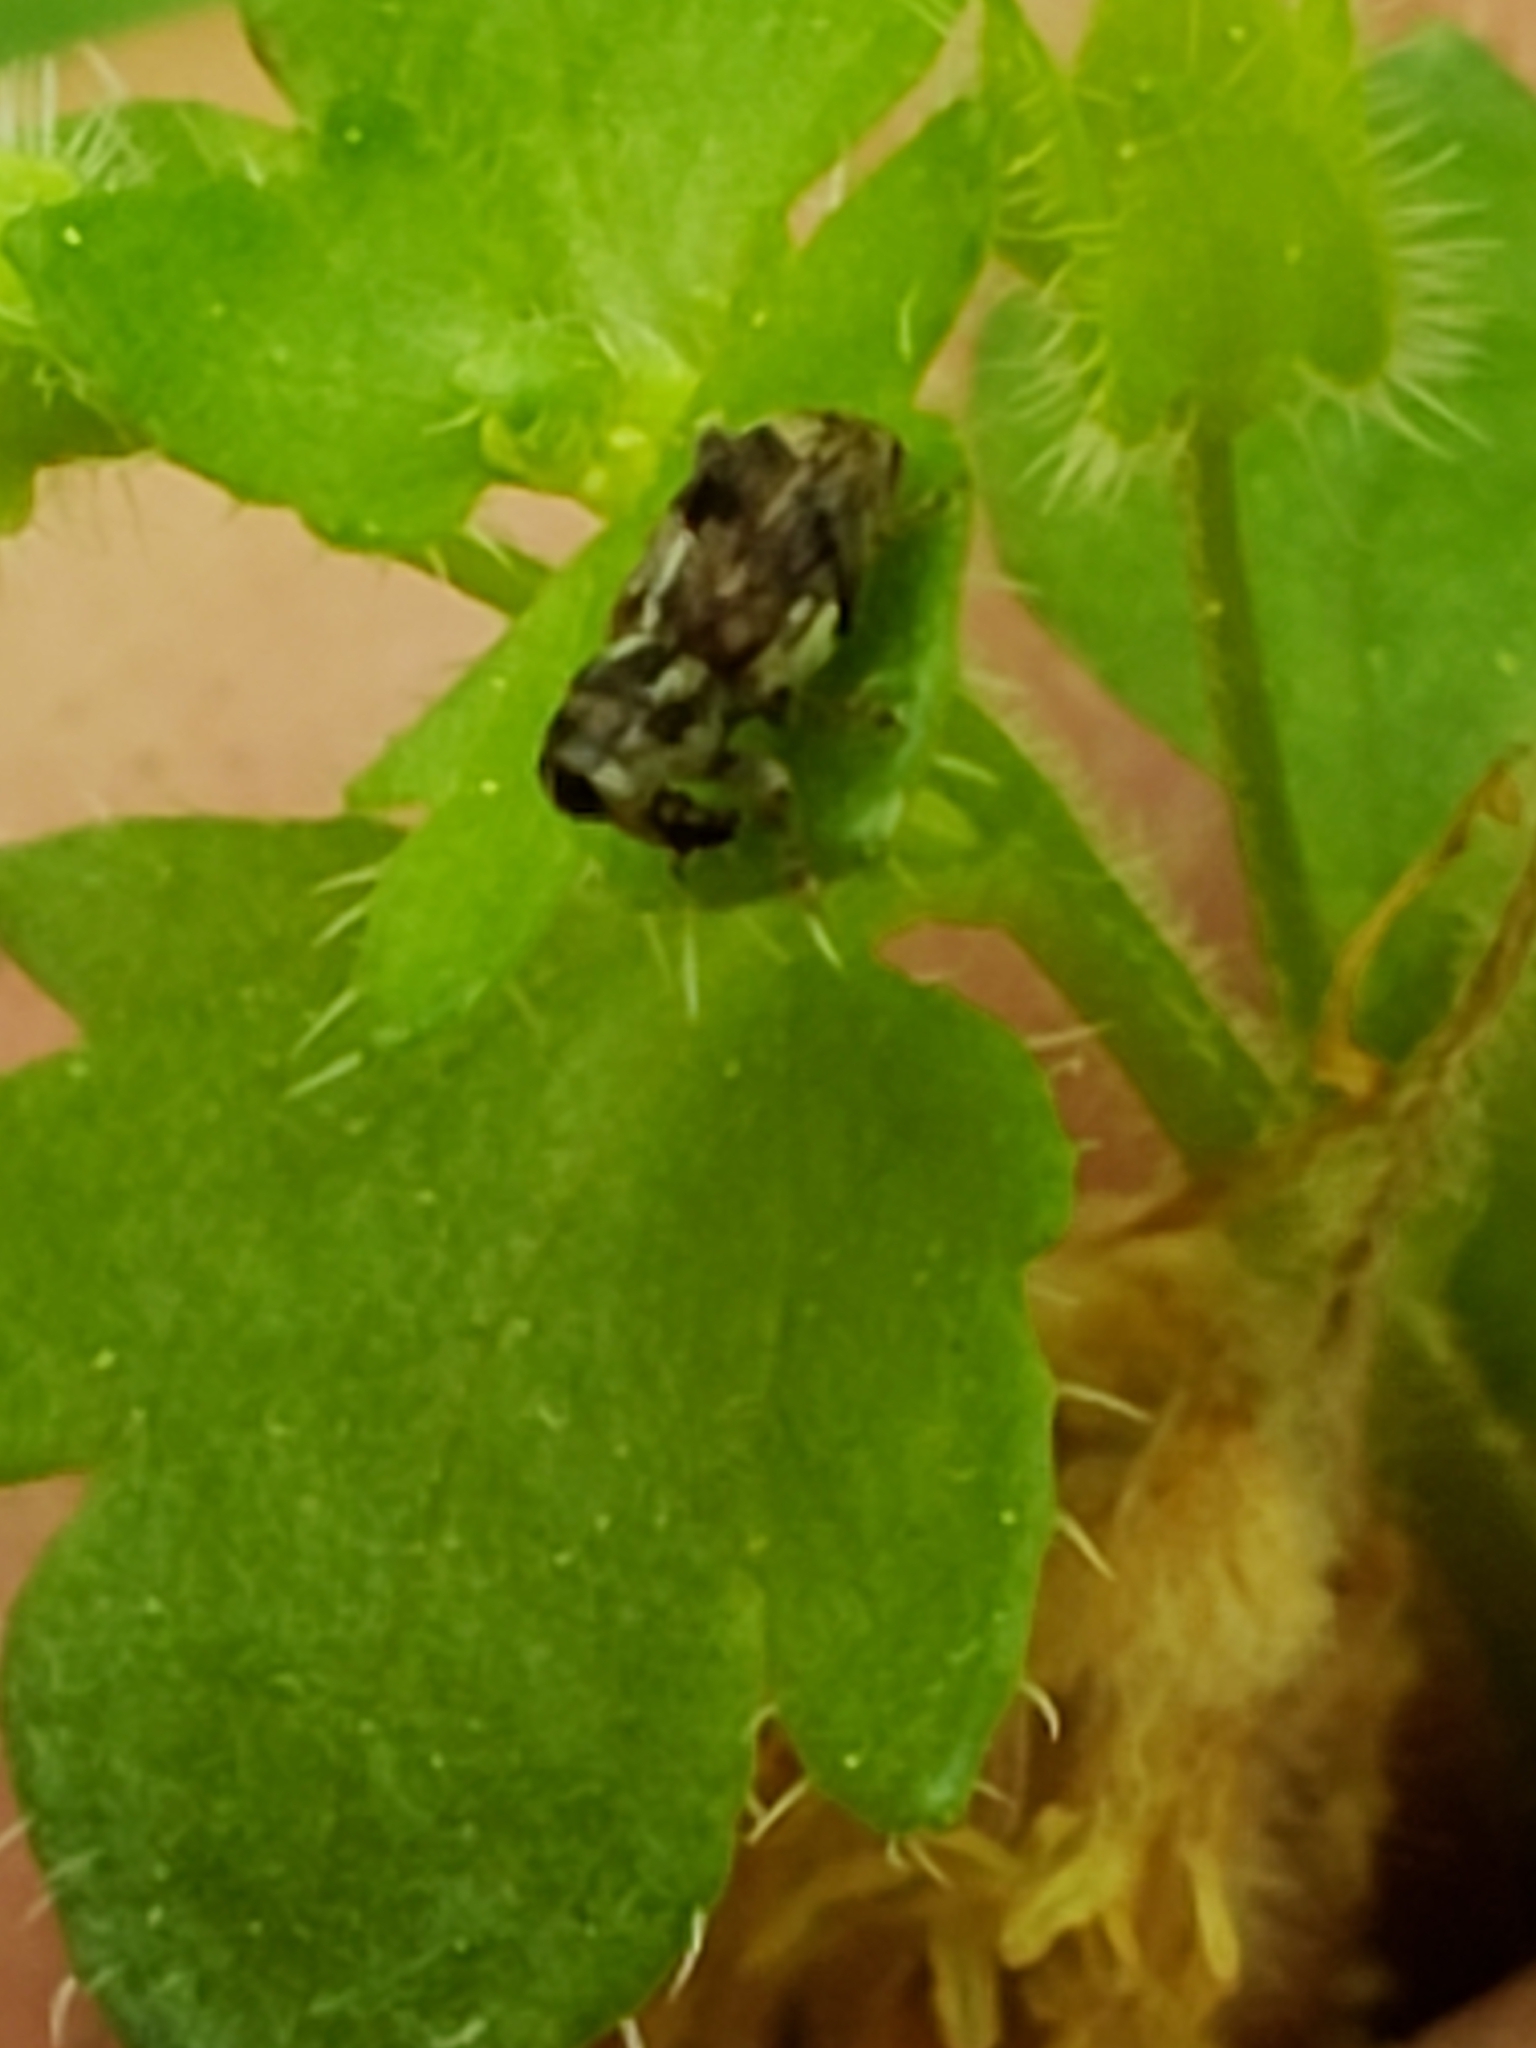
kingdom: Animalia
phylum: Arthropoda
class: Insecta
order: Coleoptera
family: Curculionidae
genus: Acoptus
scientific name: Acoptus suturalis
